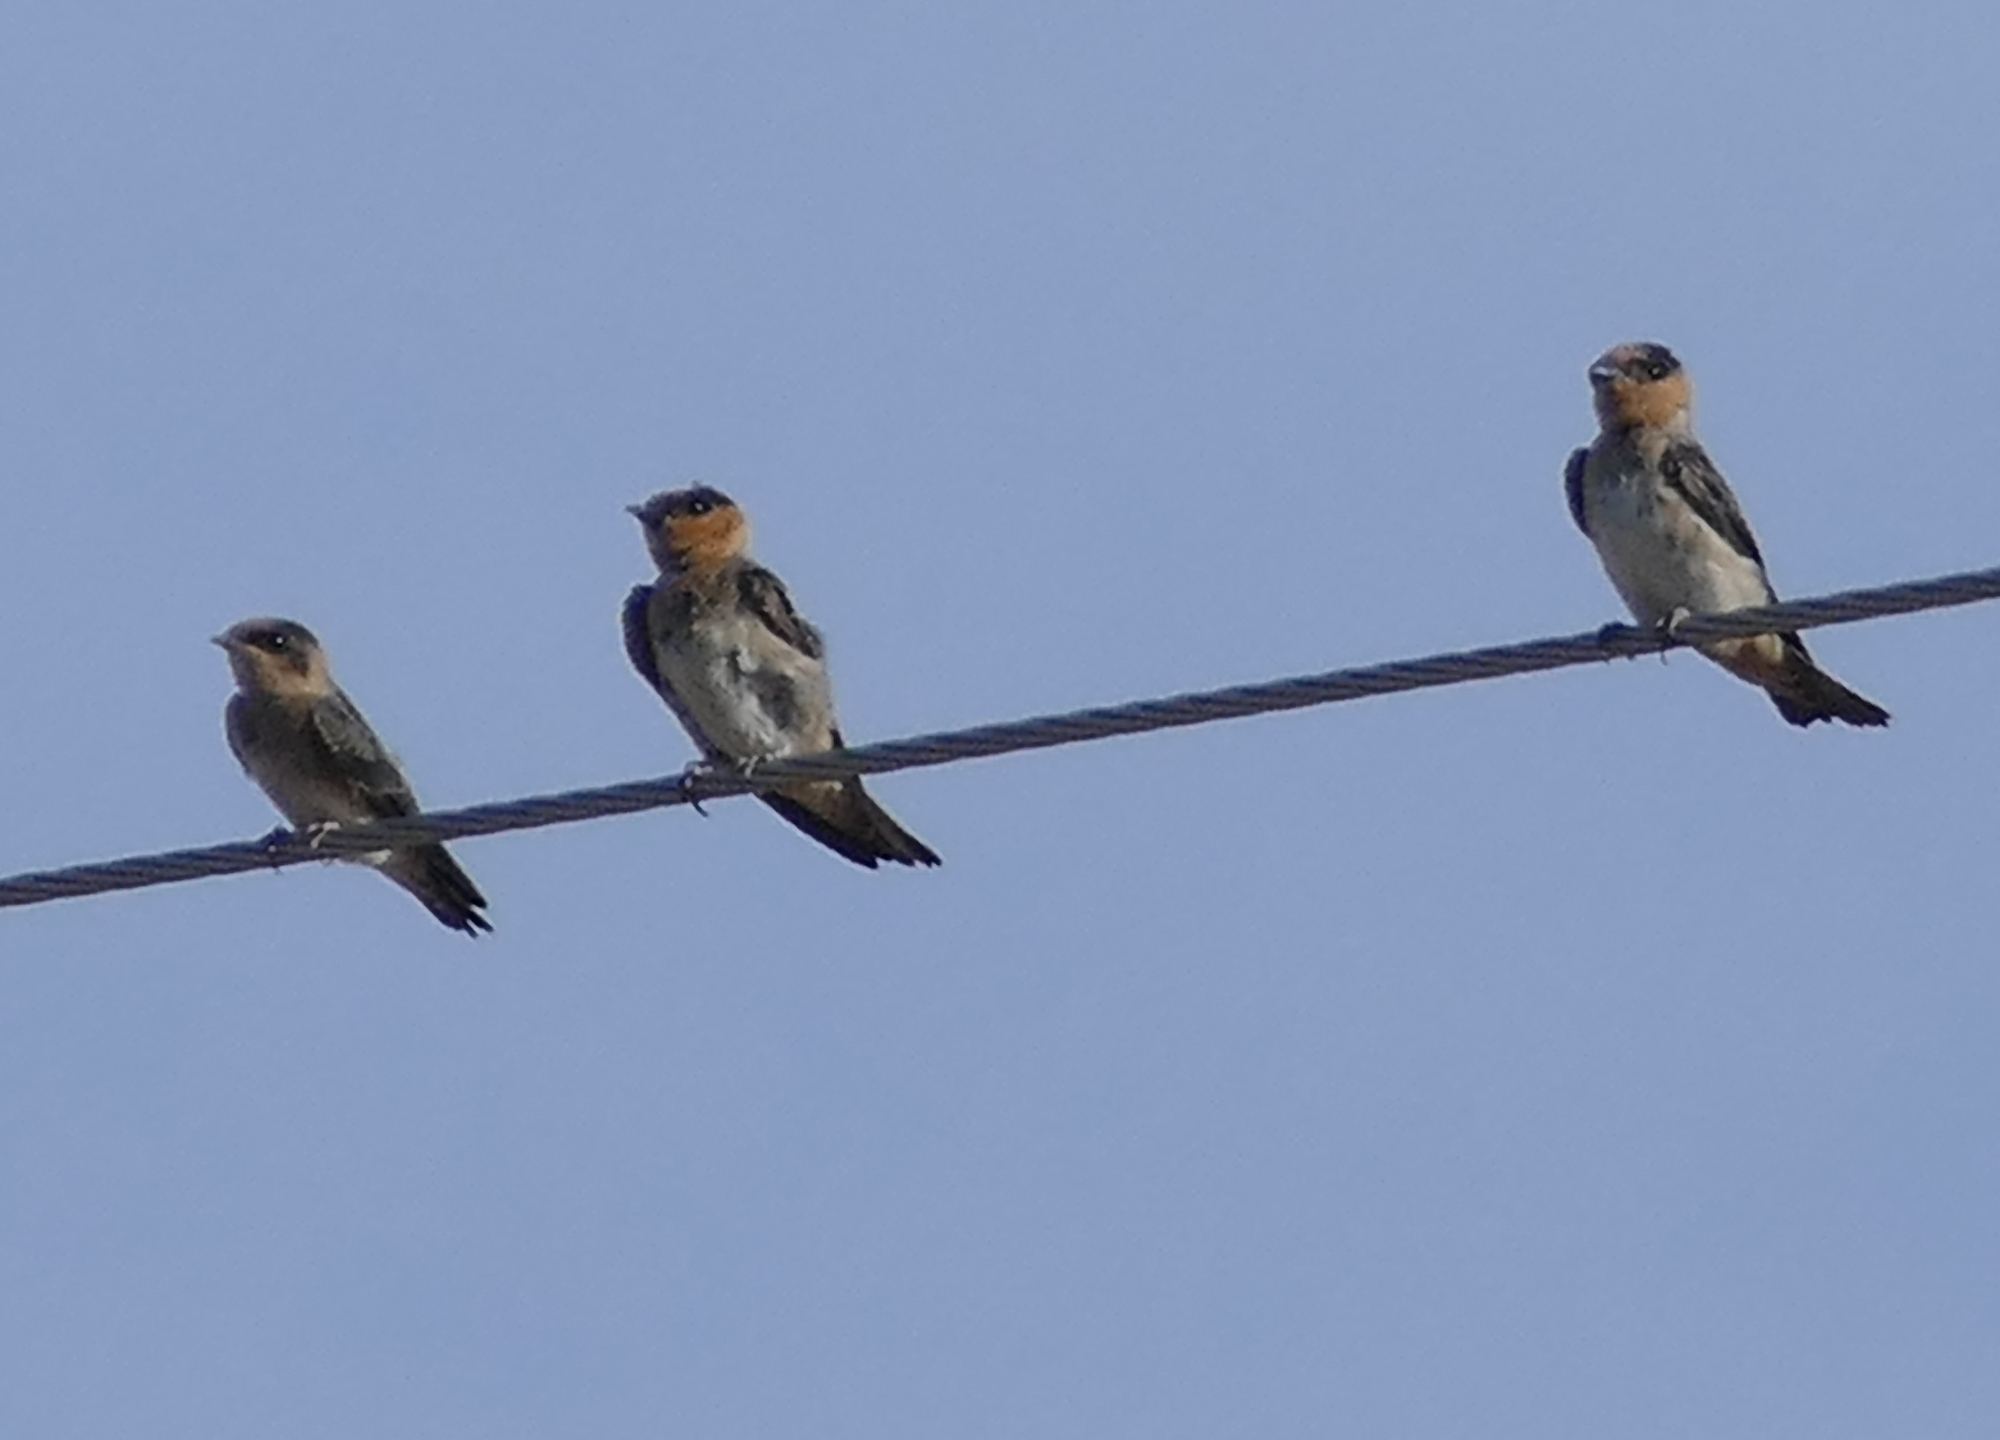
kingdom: Animalia
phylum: Chordata
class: Aves
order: Passeriformes
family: Hirundinidae
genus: Petrochelidon
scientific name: Petrochelidon fulva
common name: Cave swallow
